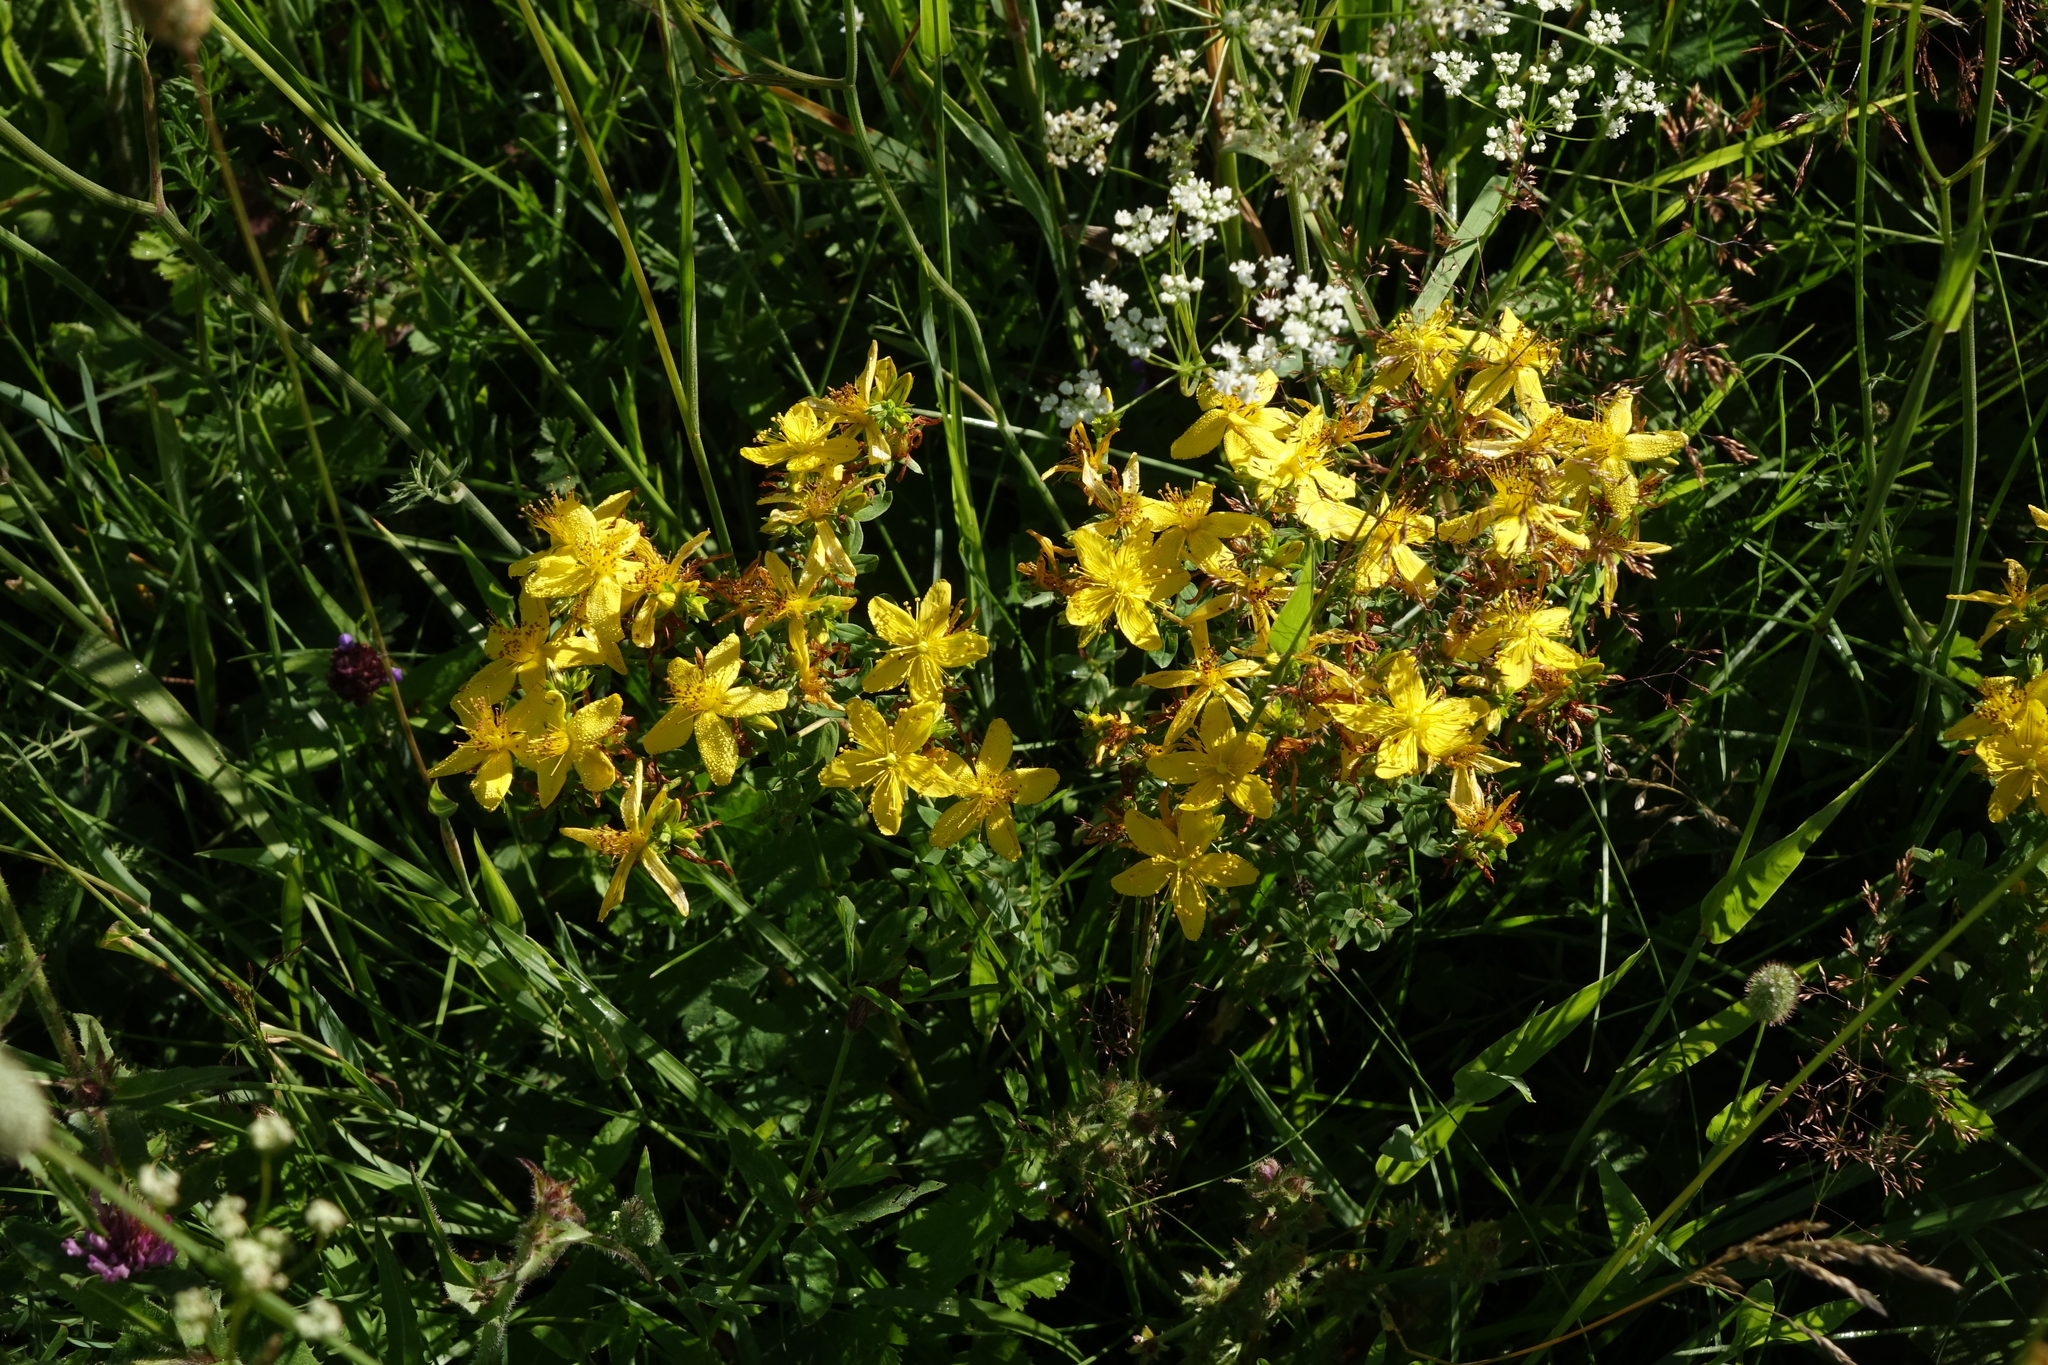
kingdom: Plantae
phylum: Tracheophyta
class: Magnoliopsida
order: Malpighiales
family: Hypericaceae
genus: Hypericum
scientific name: Hypericum perforatum
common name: Common st. johnswort
